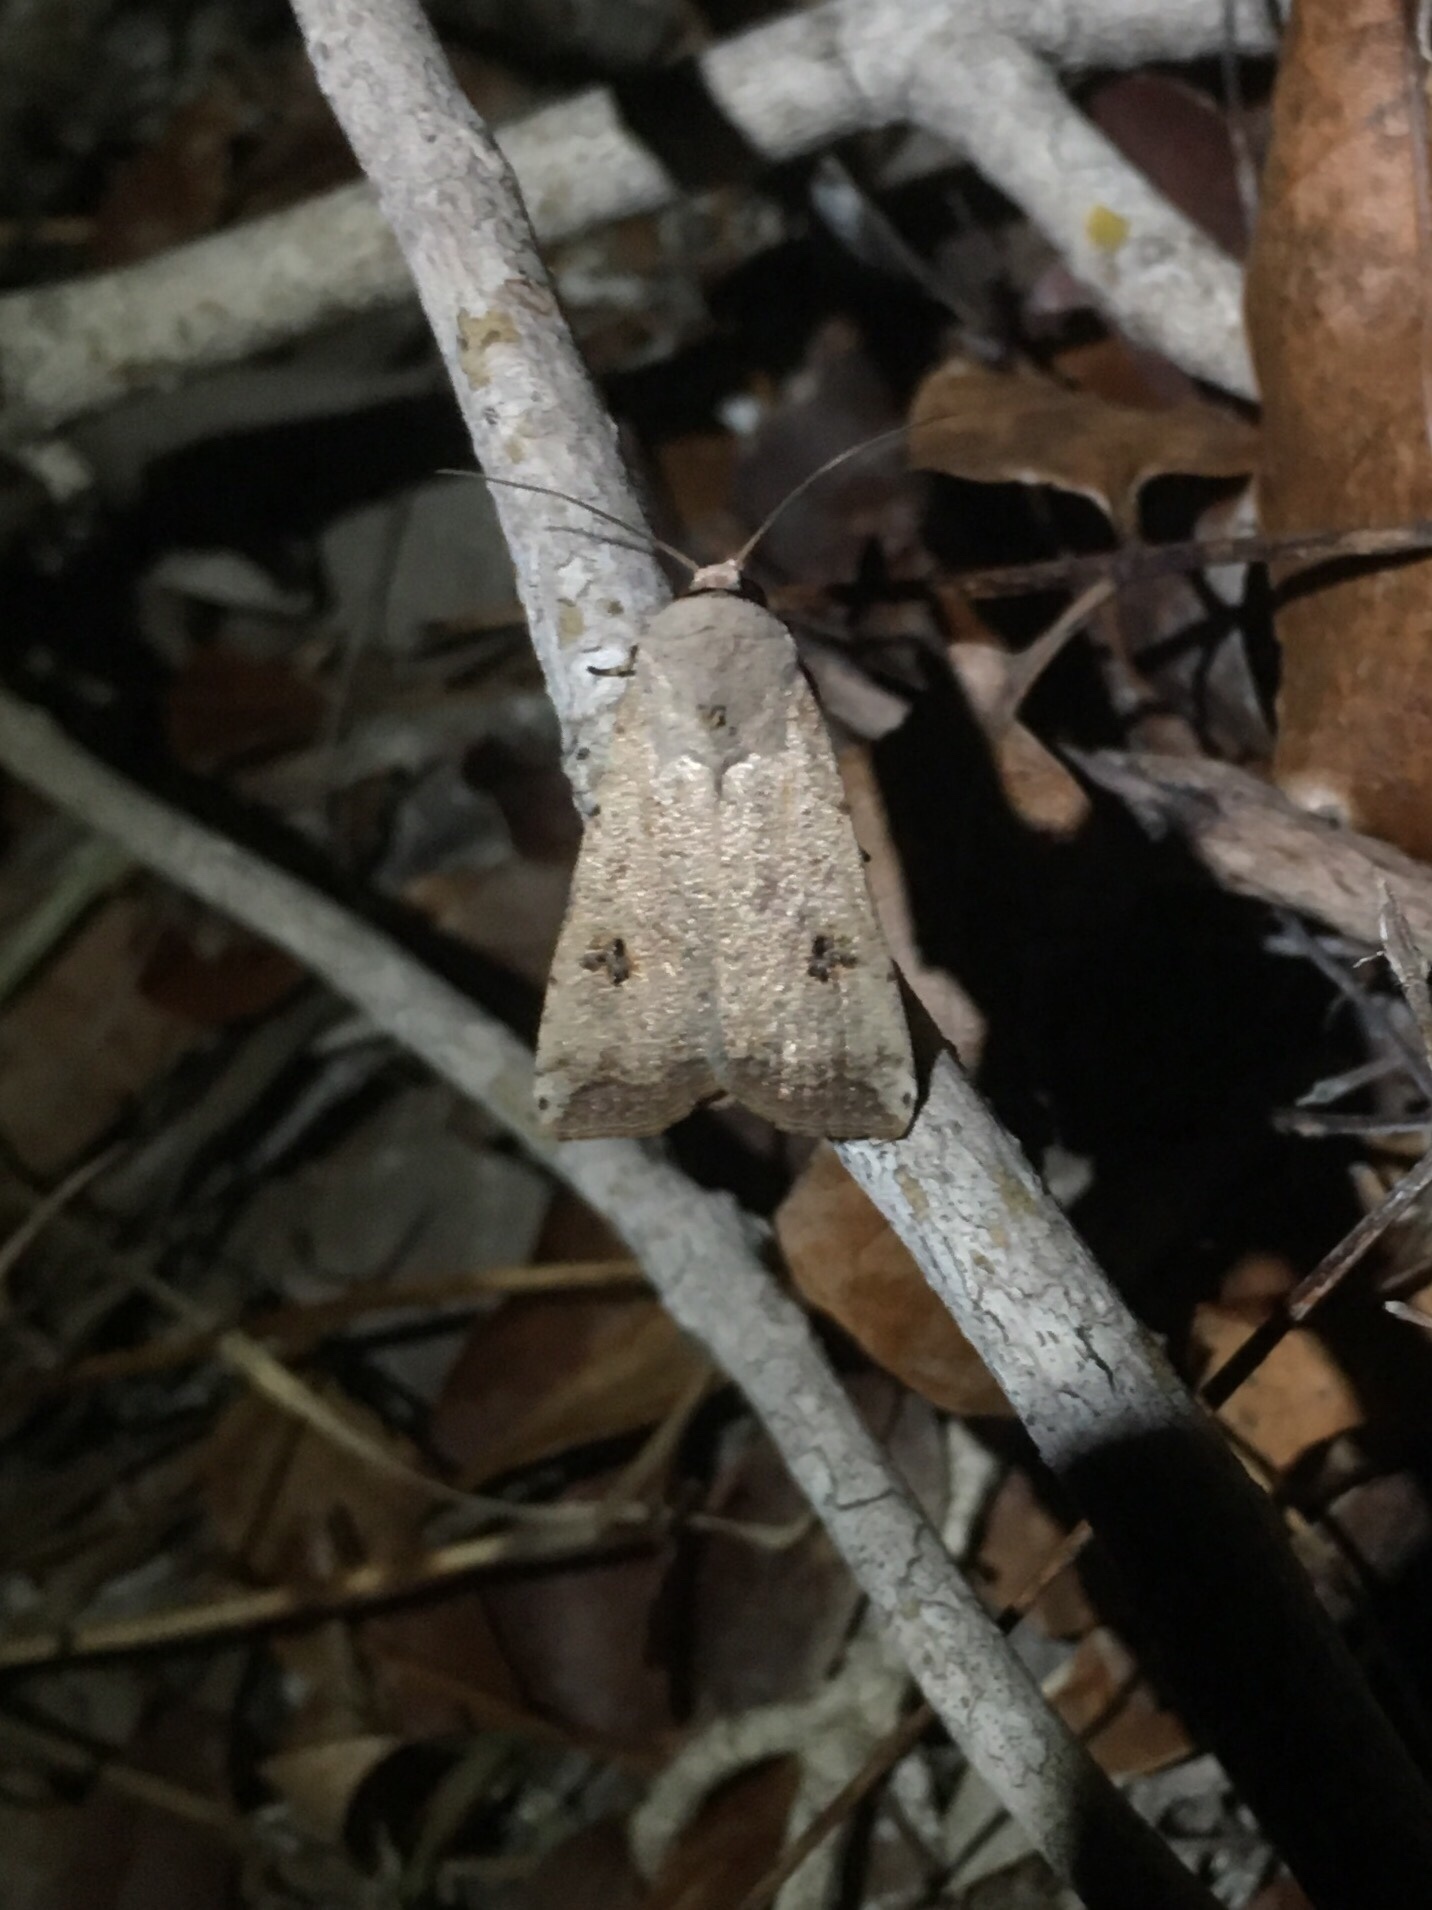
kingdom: Animalia
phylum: Arthropoda
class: Insecta
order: Lepidoptera
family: Noctuidae
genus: Anicla
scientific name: Anicla infecta
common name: Green cutworm
